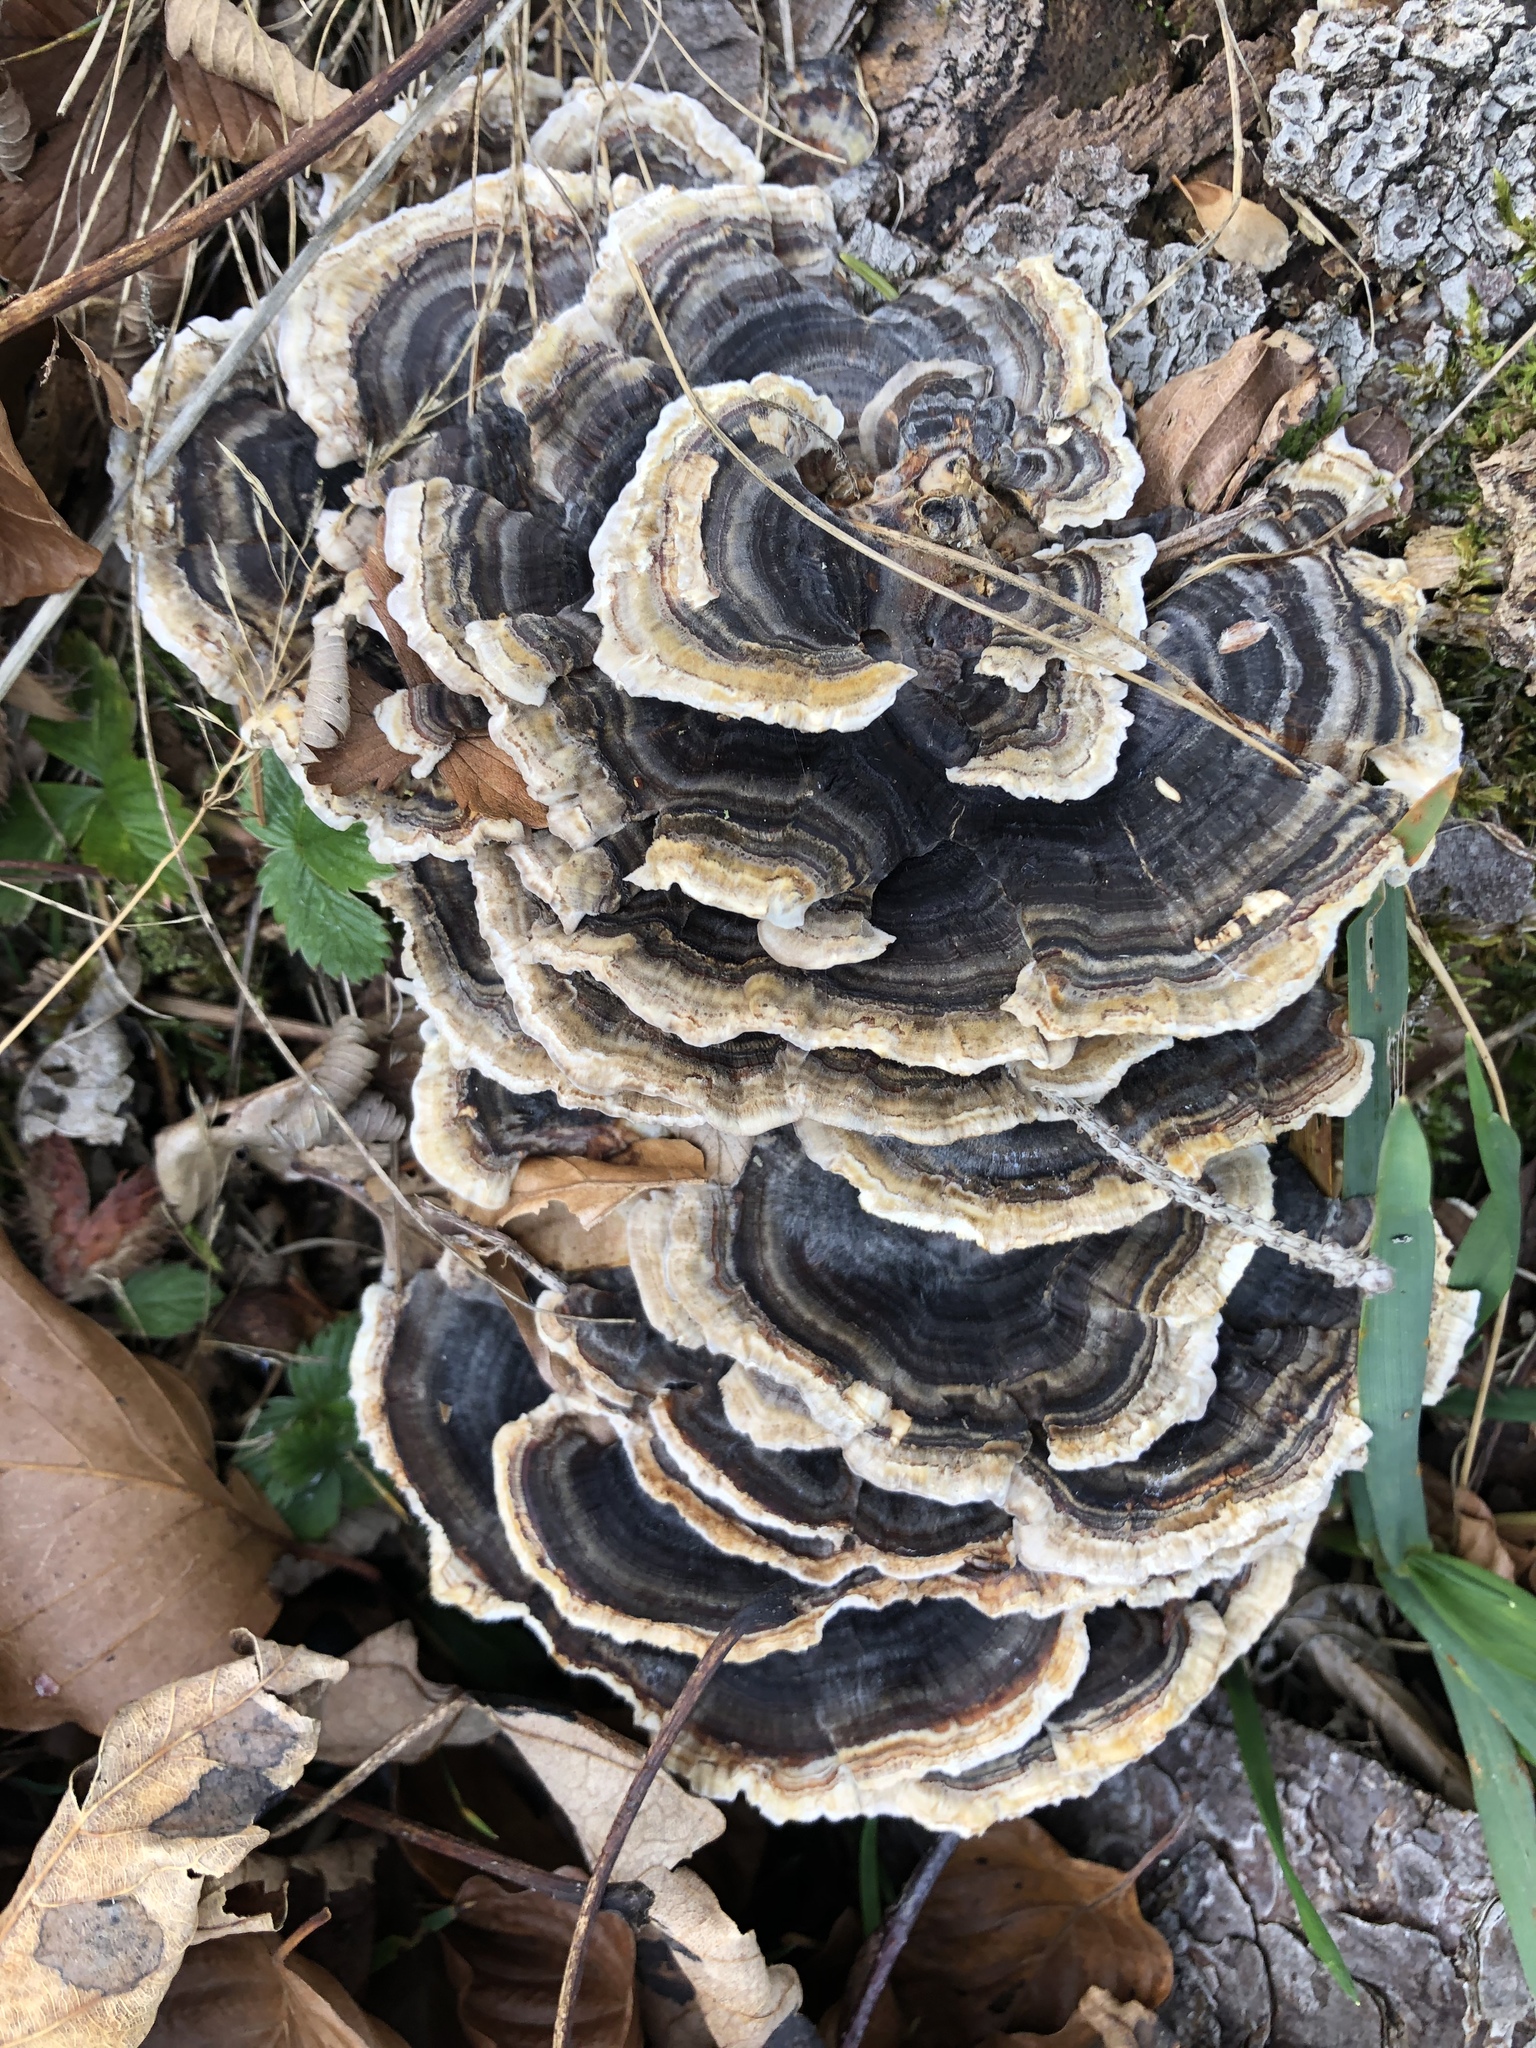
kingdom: Fungi
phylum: Basidiomycota
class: Agaricomycetes
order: Polyporales
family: Polyporaceae
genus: Trametes
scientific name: Trametes versicolor
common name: Turkeytail
